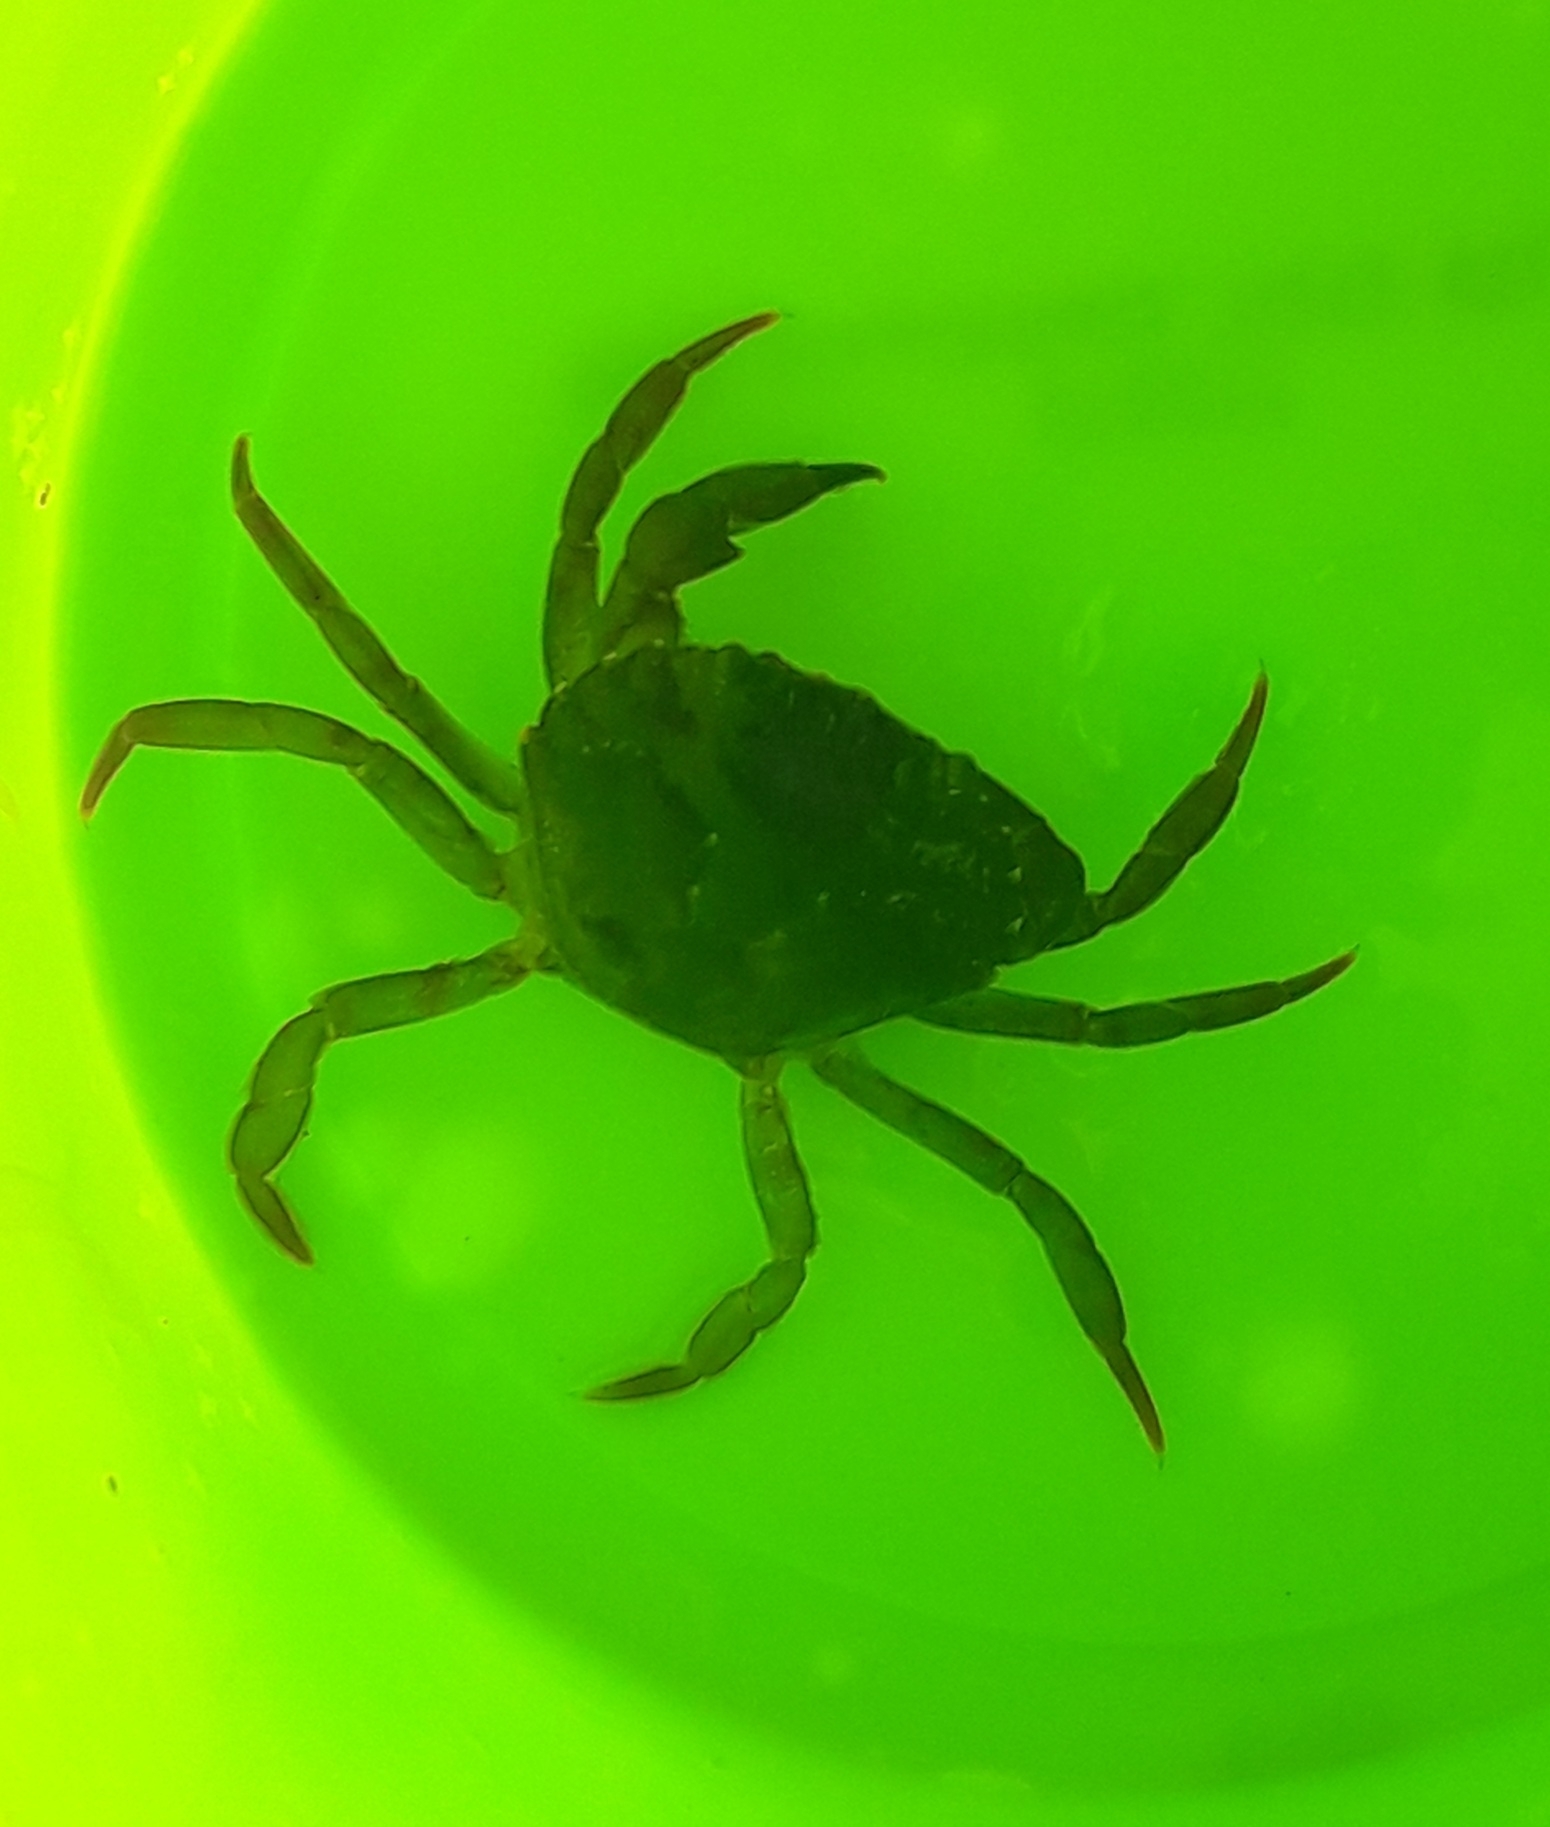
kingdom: Animalia
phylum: Arthropoda
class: Malacostraca
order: Decapoda
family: Carcinidae
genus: Carcinus
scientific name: Carcinus maenas
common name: European green crab
